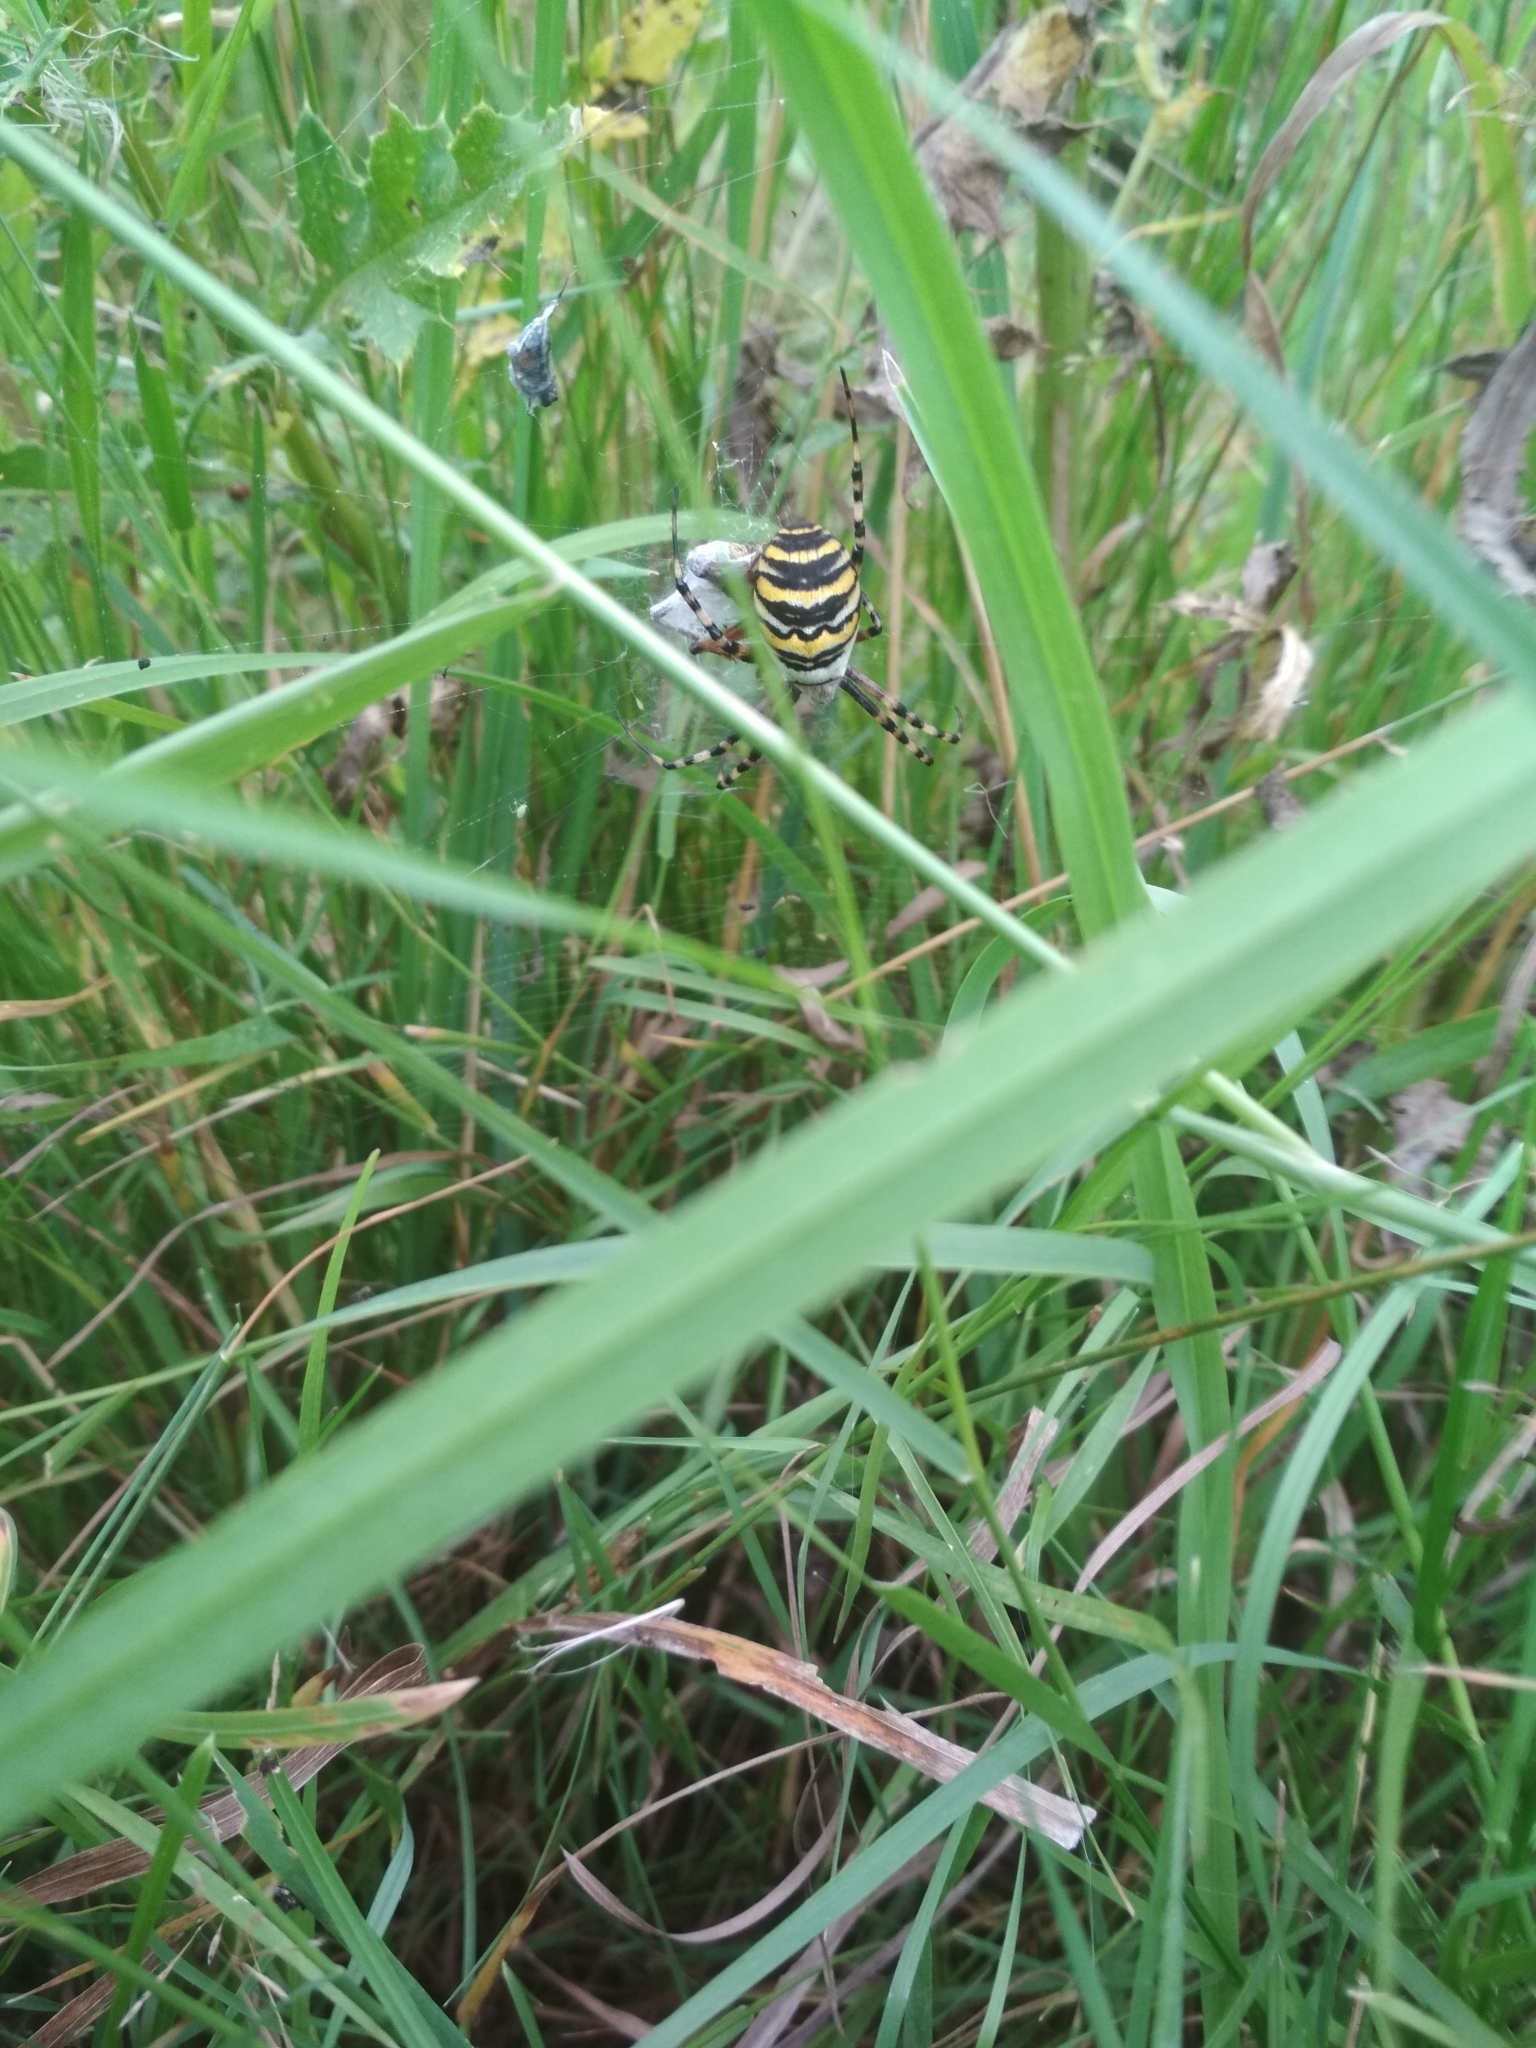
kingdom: Animalia
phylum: Arthropoda
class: Arachnida
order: Araneae
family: Araneidae
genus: Argiope
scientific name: Argiope bruennichi
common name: Wasp spider
